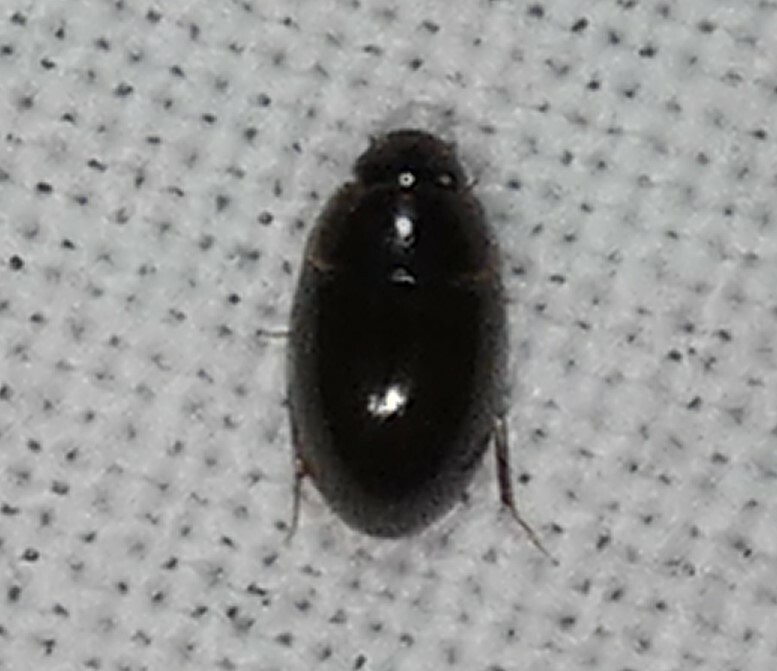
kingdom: Animalia
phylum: Arthropoda
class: Insecta
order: Coleoptera
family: Hydrophilidae
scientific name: Hydrophilidae
